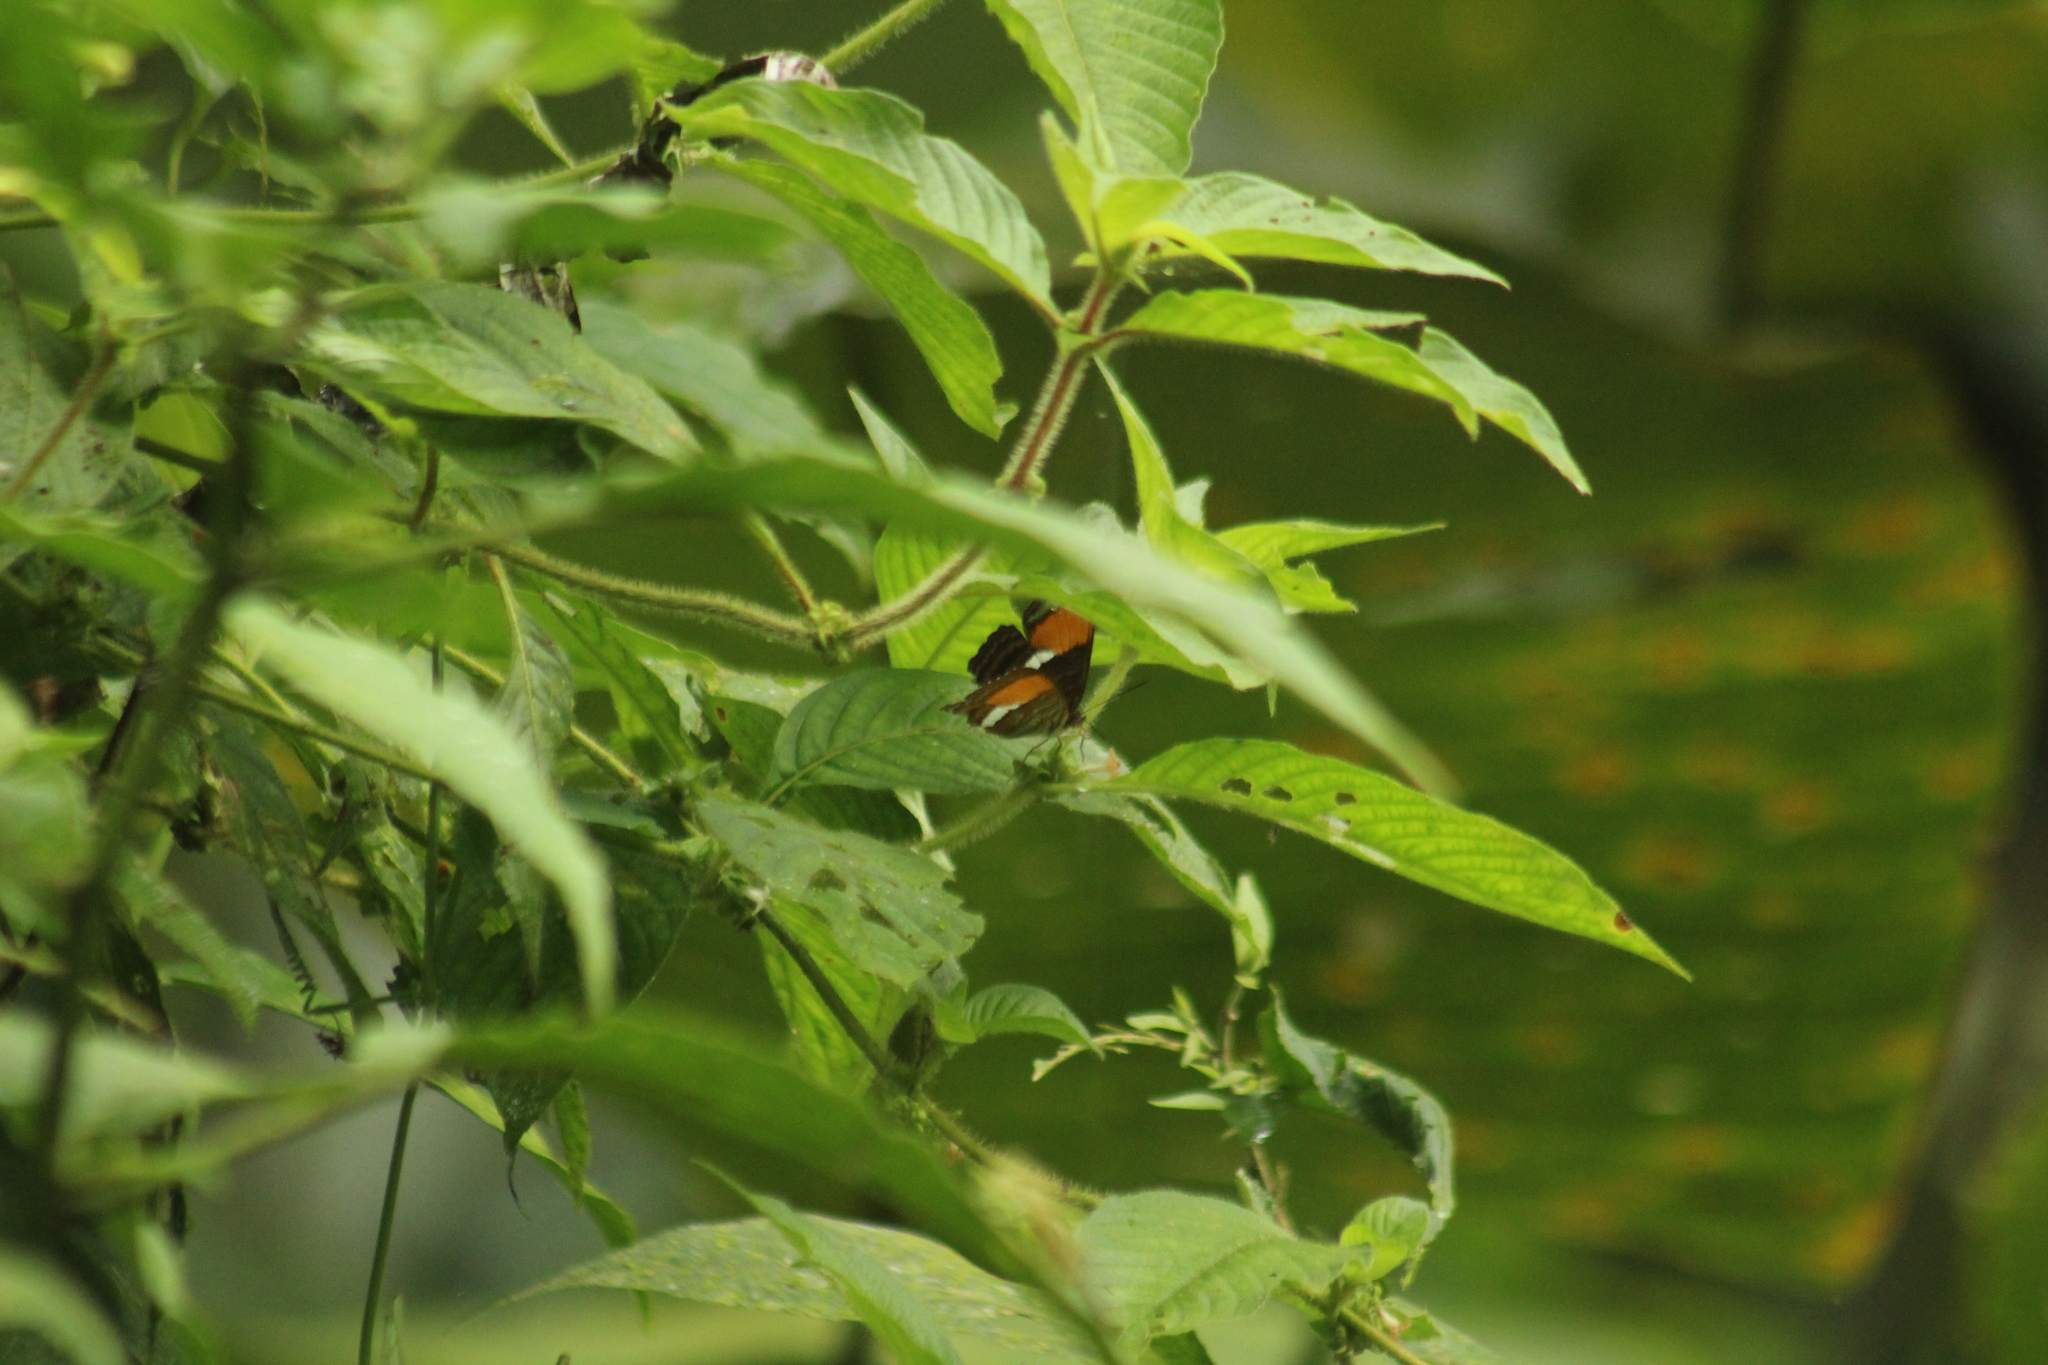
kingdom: Animalia
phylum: Arthropoda
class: Insecta
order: Lepidoptera
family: Nymphalidae
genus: Limenitis
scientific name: Limenitis cytherea
